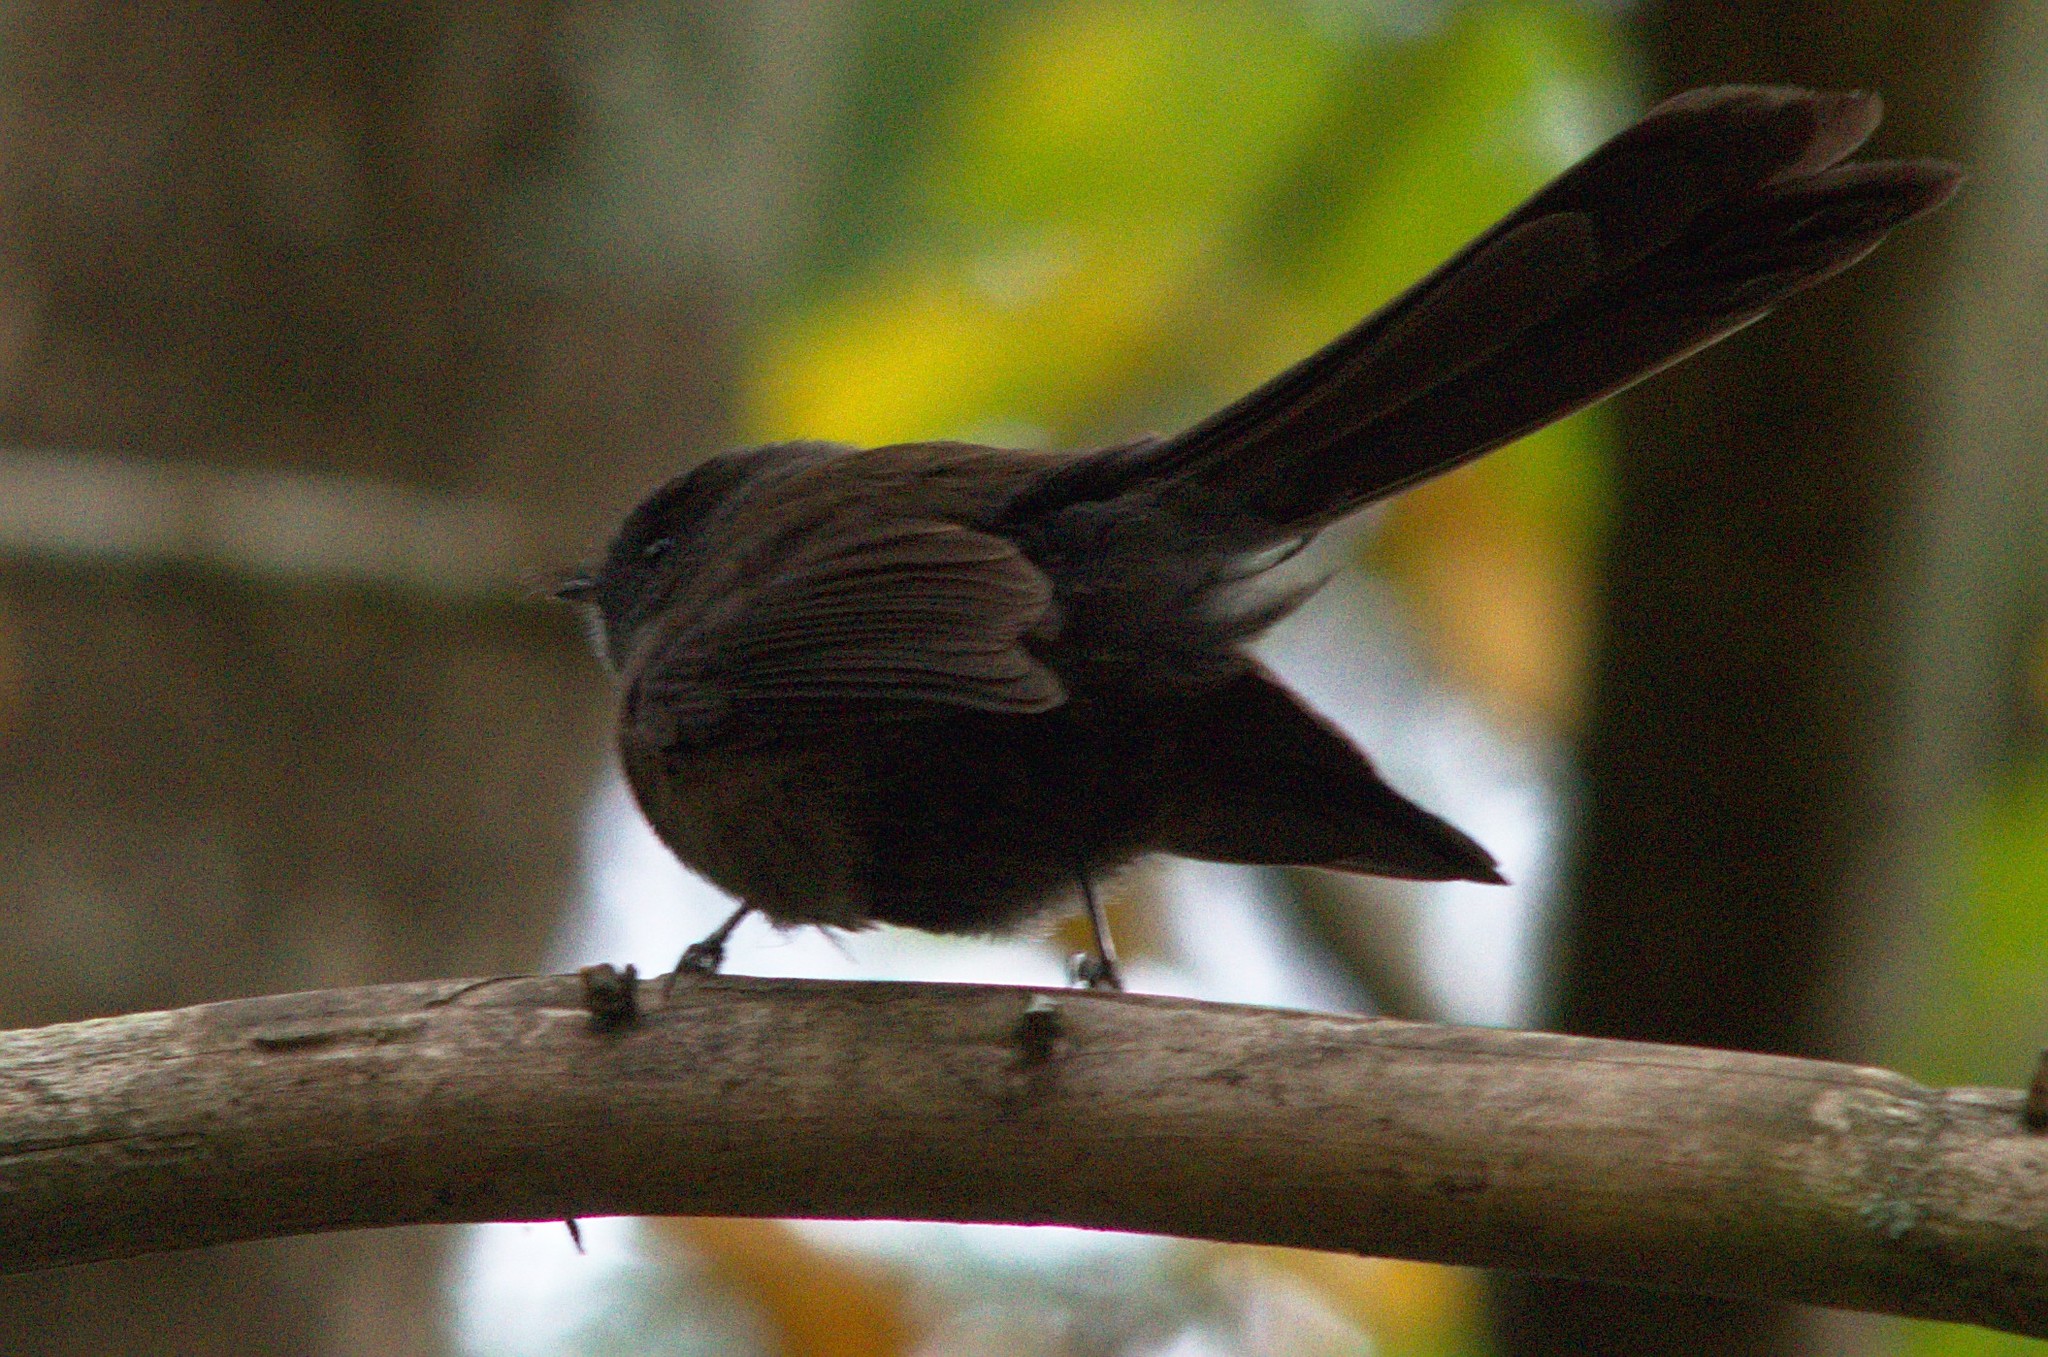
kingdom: Animalia
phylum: Chordata
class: Aves
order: Passeriformes
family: Rhipiduridae
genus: Rhipidura
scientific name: Rhipidura fuliginosa
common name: New zealand fantail
